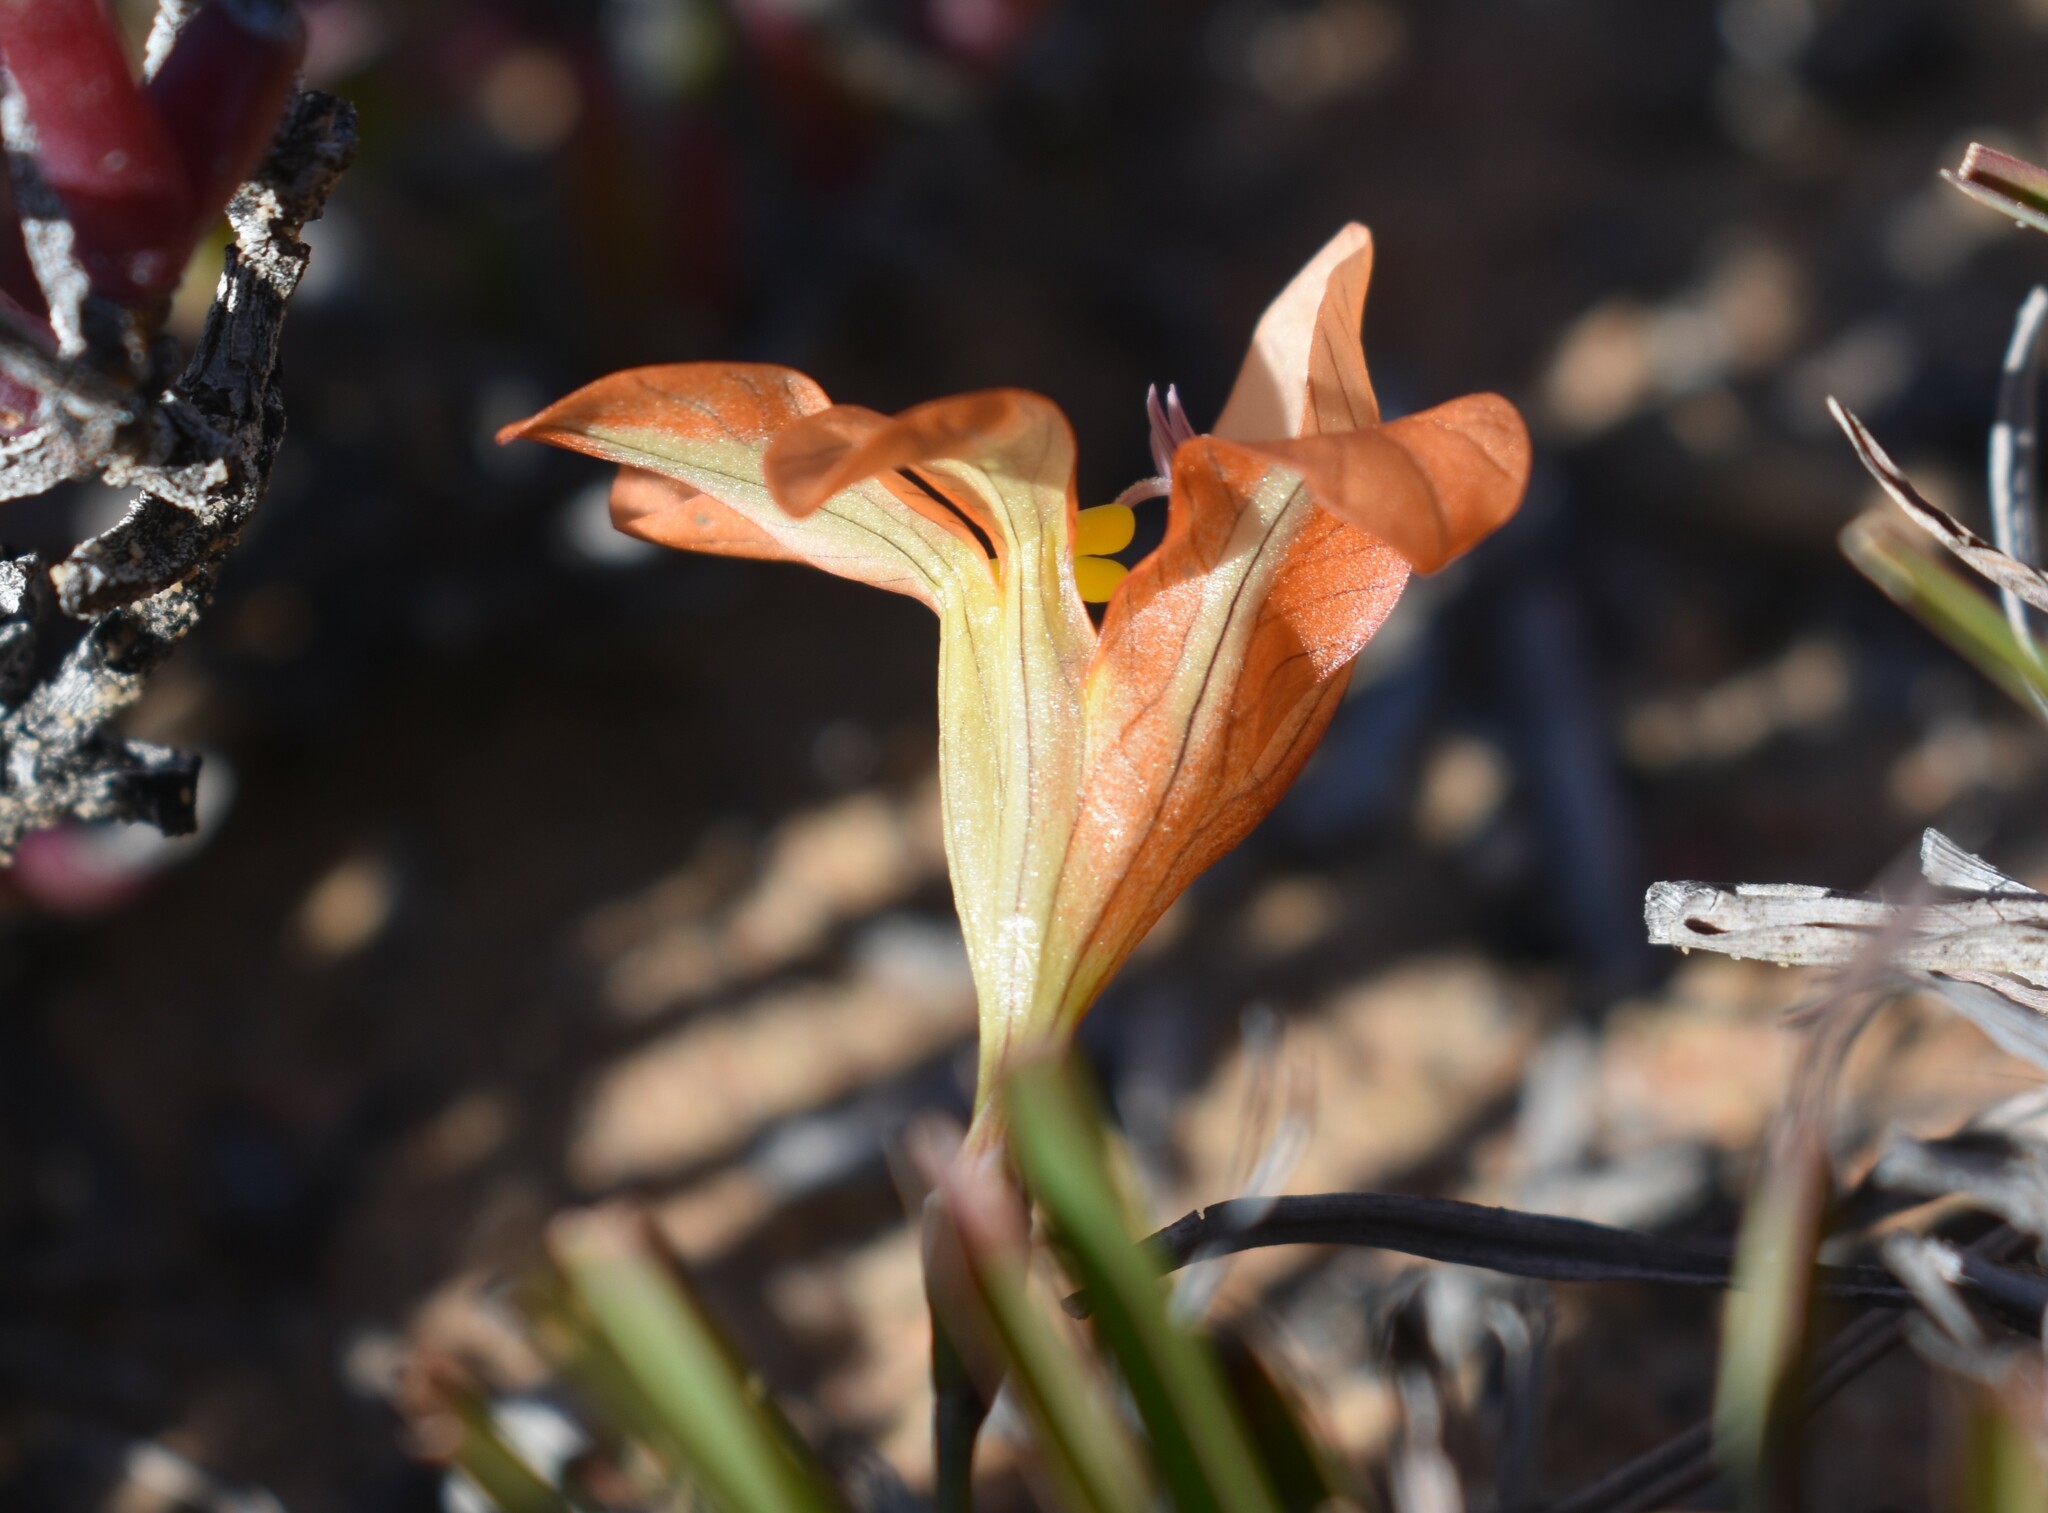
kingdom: Plantae
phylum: Tracheophyta
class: Liliopsida
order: Asparagales
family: Iridaceae
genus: Tritonia
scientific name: Tritonia securigera
